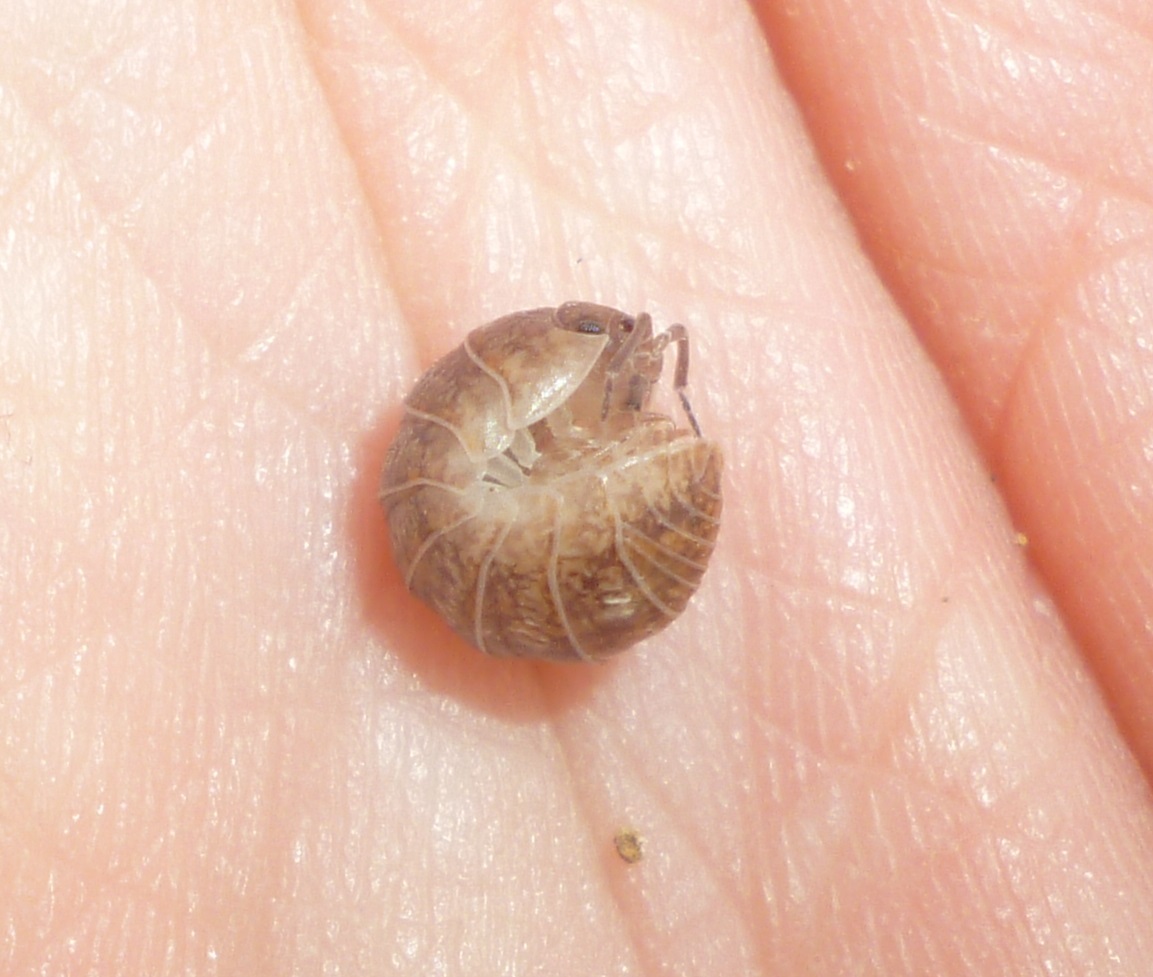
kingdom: Animalia
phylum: Arthropoda
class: Malacostraca
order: Isopoda
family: Armadillidiidae
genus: Armadillidium
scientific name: Armadillidium marmoratum
